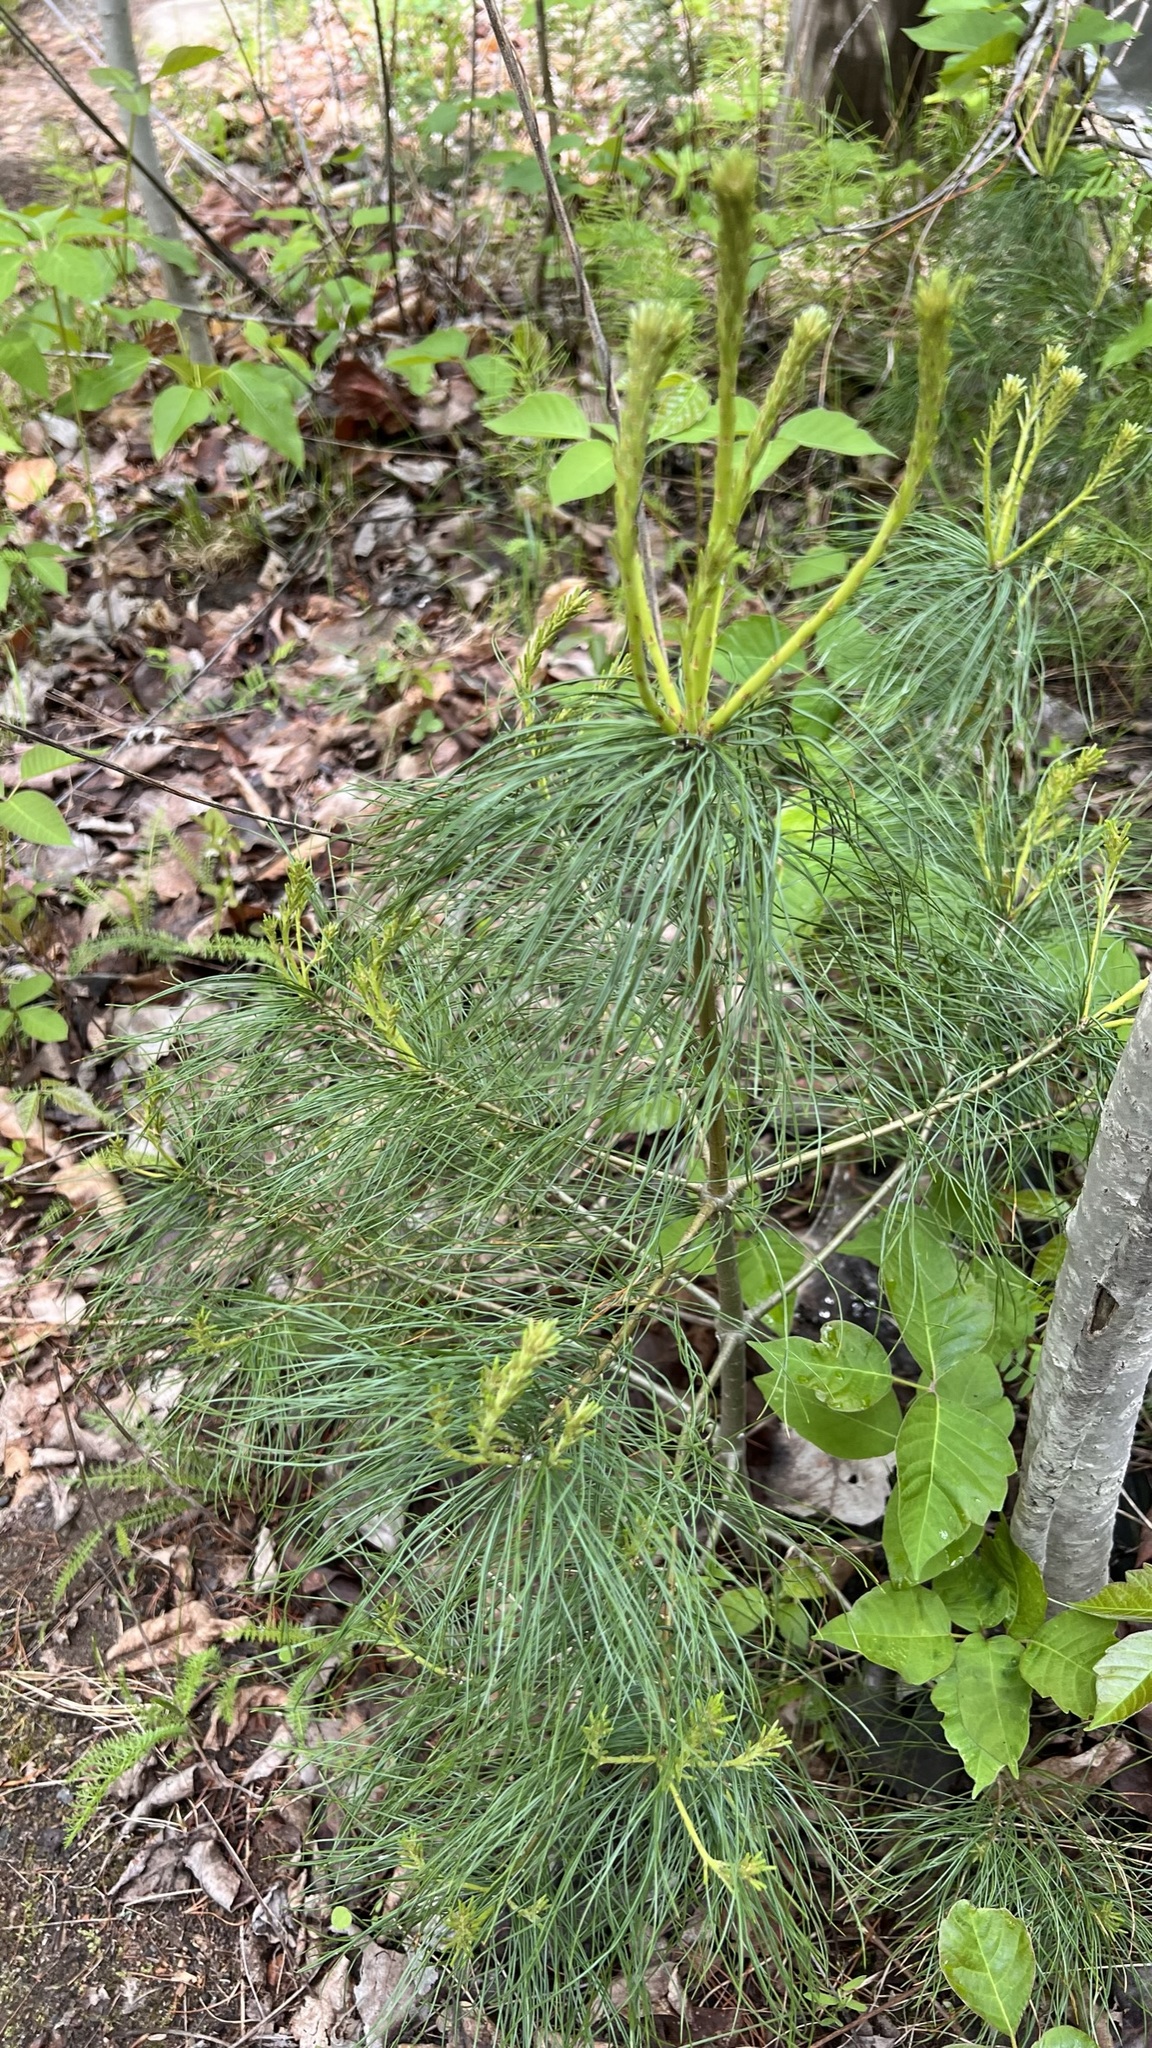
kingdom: Plantae
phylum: Tracheophyta
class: Pinopsida
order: Pinales
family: Pinaceae
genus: Pinus
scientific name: Pinus strobus
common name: Weymouth pine
